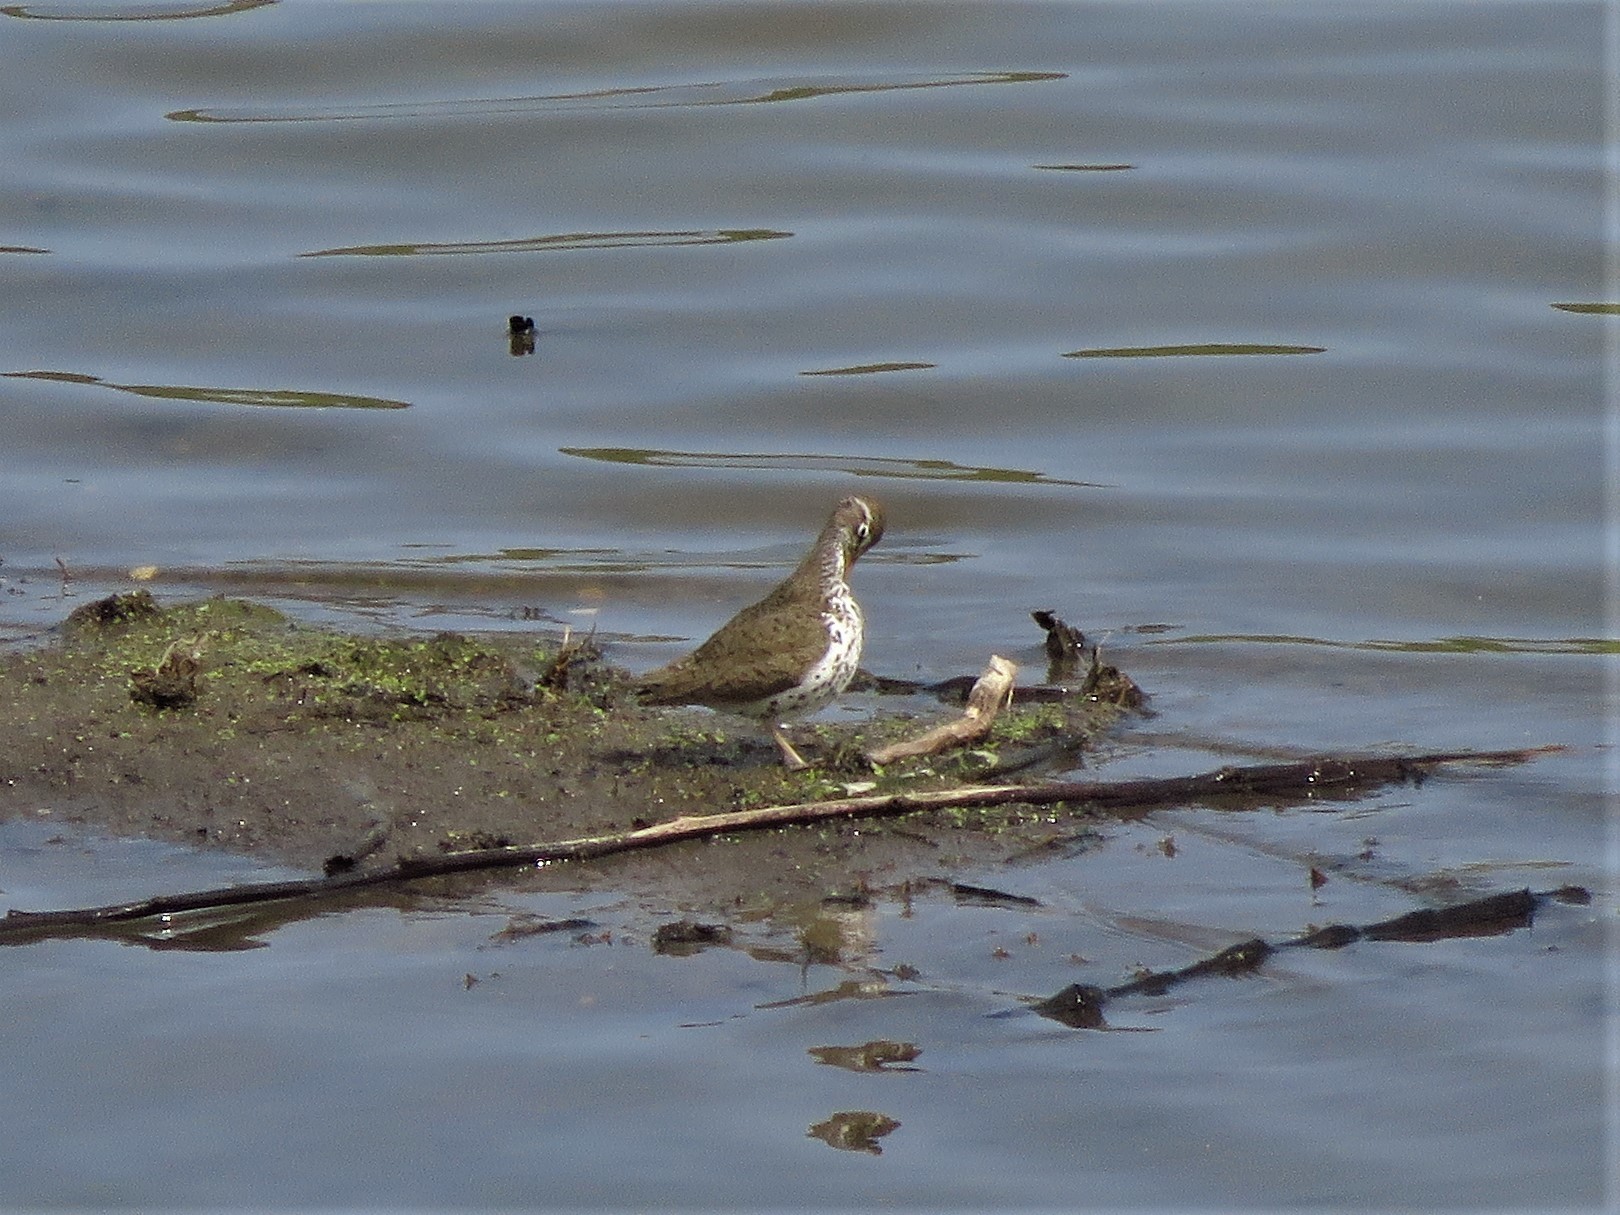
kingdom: Animalia
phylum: Chordata
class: Aves
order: Charadriiformes
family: Scolopacidae
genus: Actitis
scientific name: Actitis macularius
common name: Spotted sandpiper
